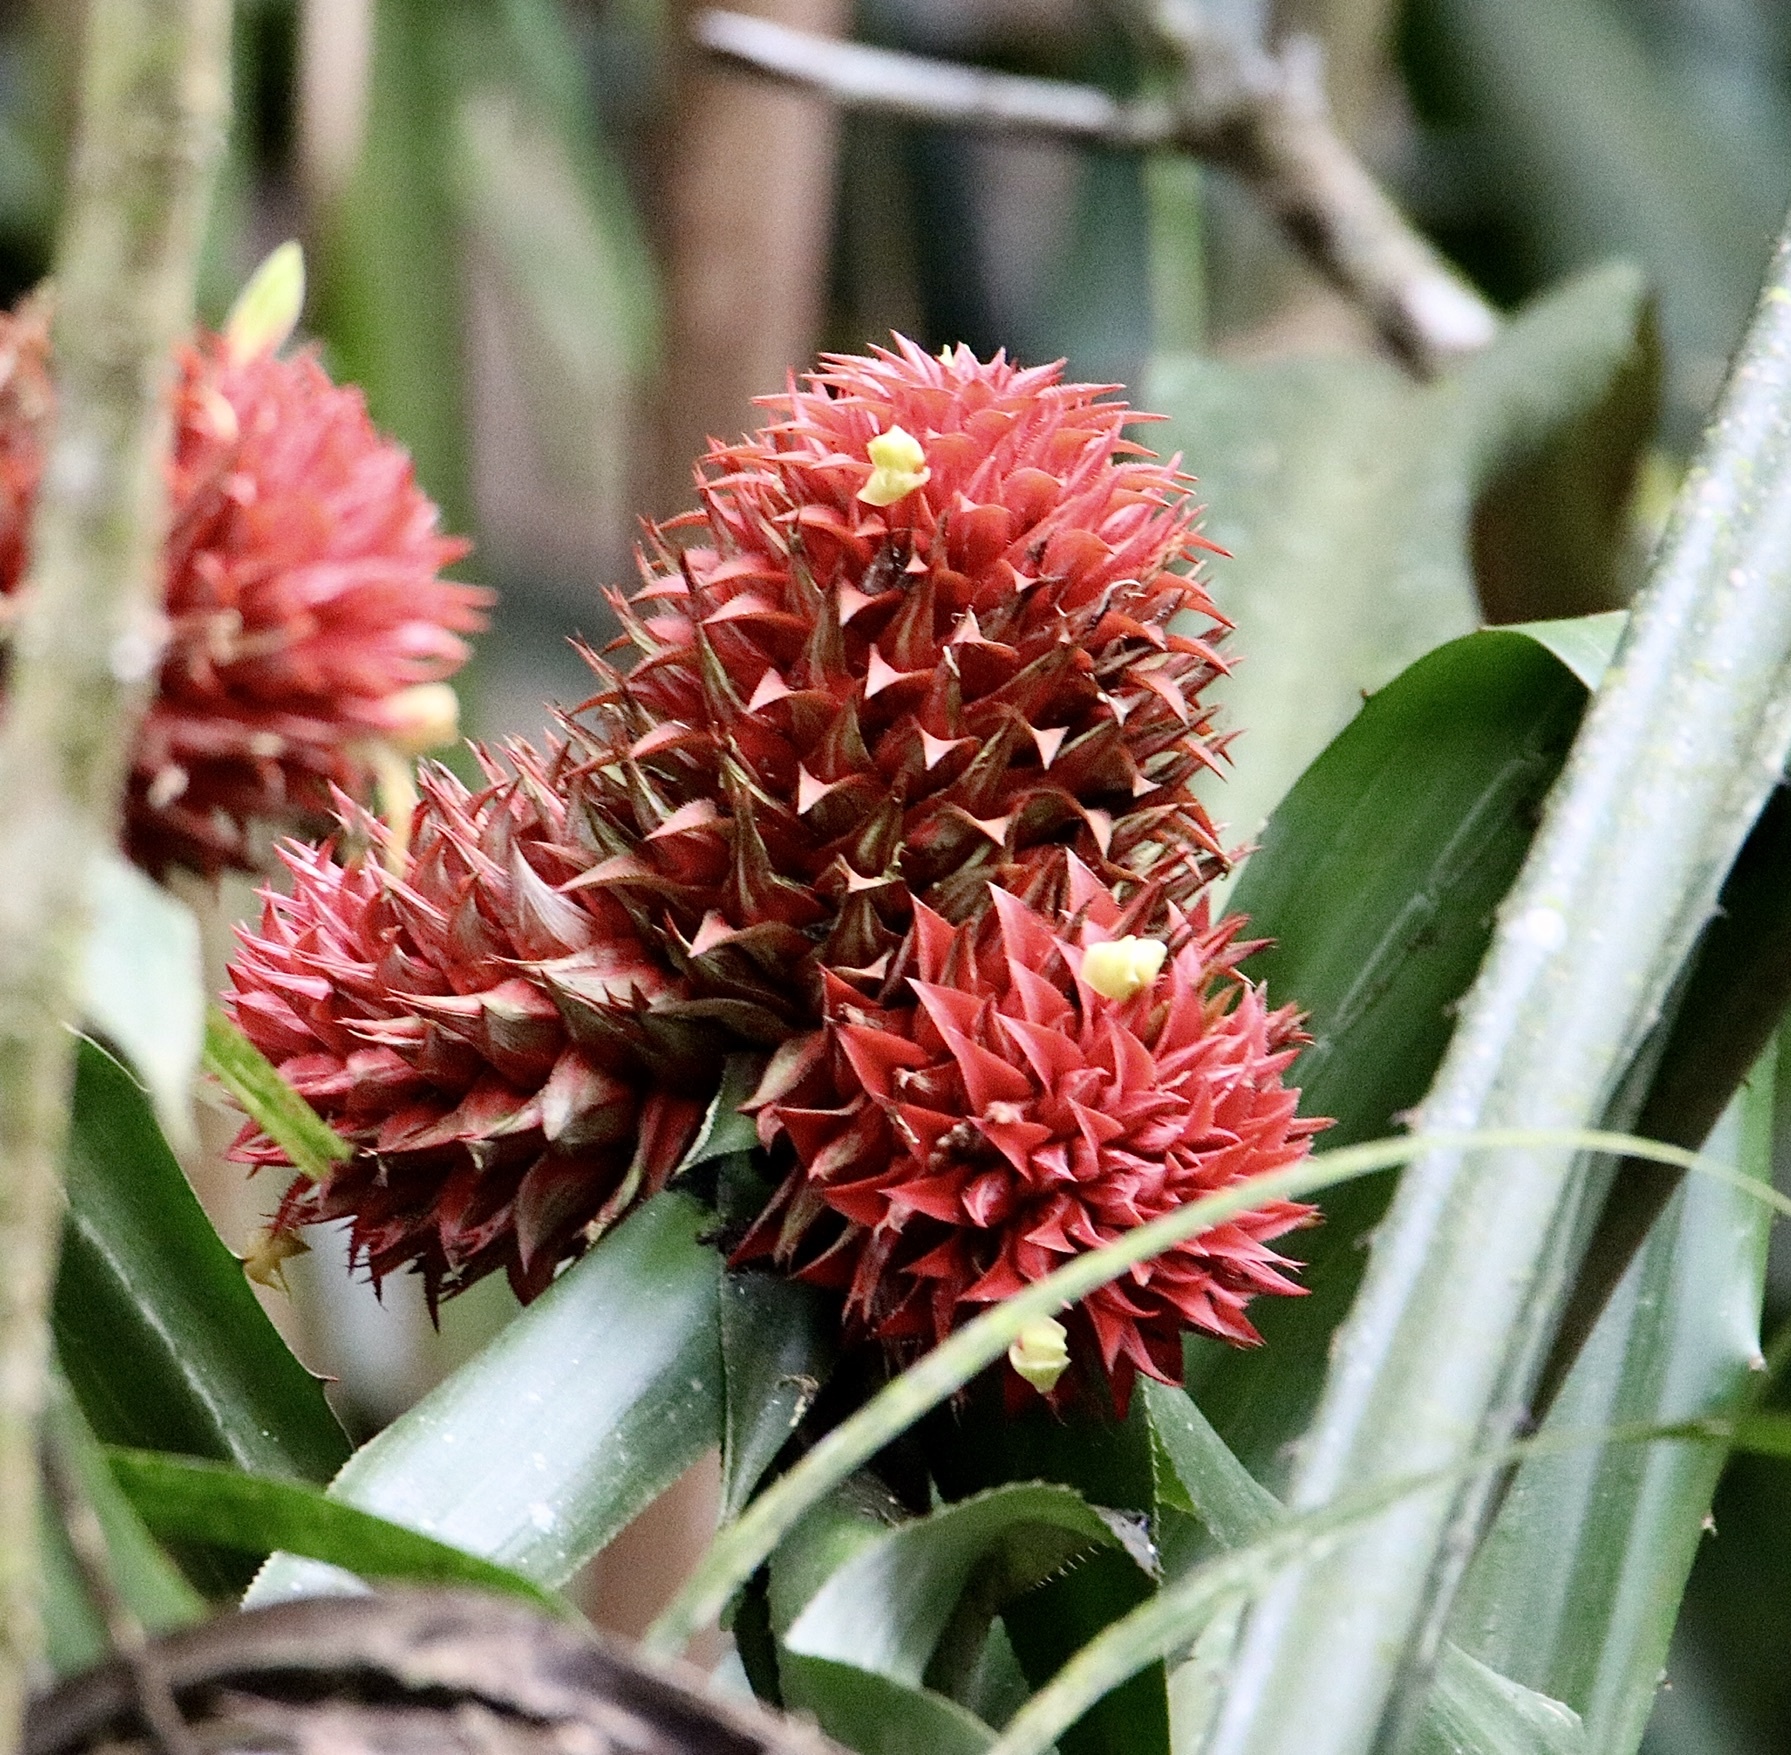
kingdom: Plantae
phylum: Tracheophyta
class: Liliopsida
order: Poales
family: Bromeliaceae
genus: Aechmea
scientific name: Aechmea magdalenae
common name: Arghan
